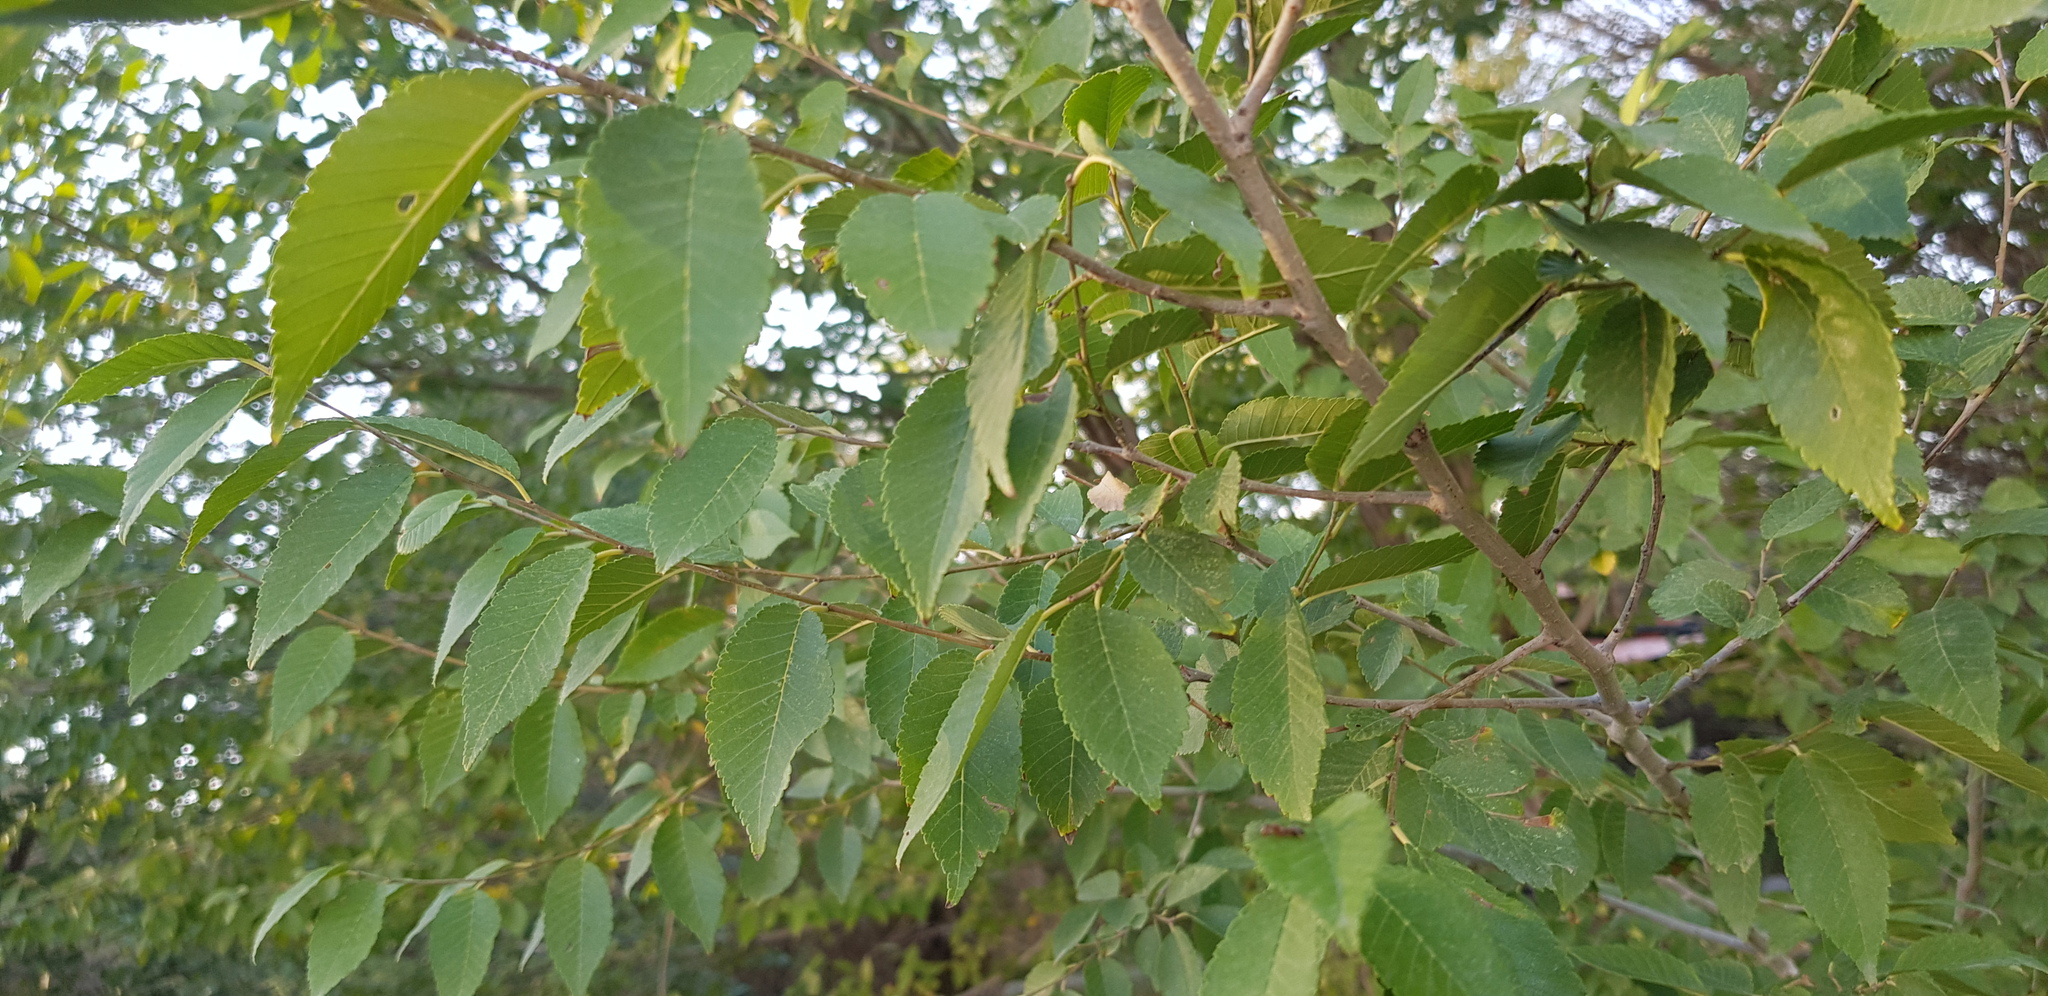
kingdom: Plantae
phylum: Tracheophyta
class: Magnoliopsida
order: Rosales
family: Ulmaceae
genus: Ulmus
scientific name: Ulmus pumila
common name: Siberian elm
